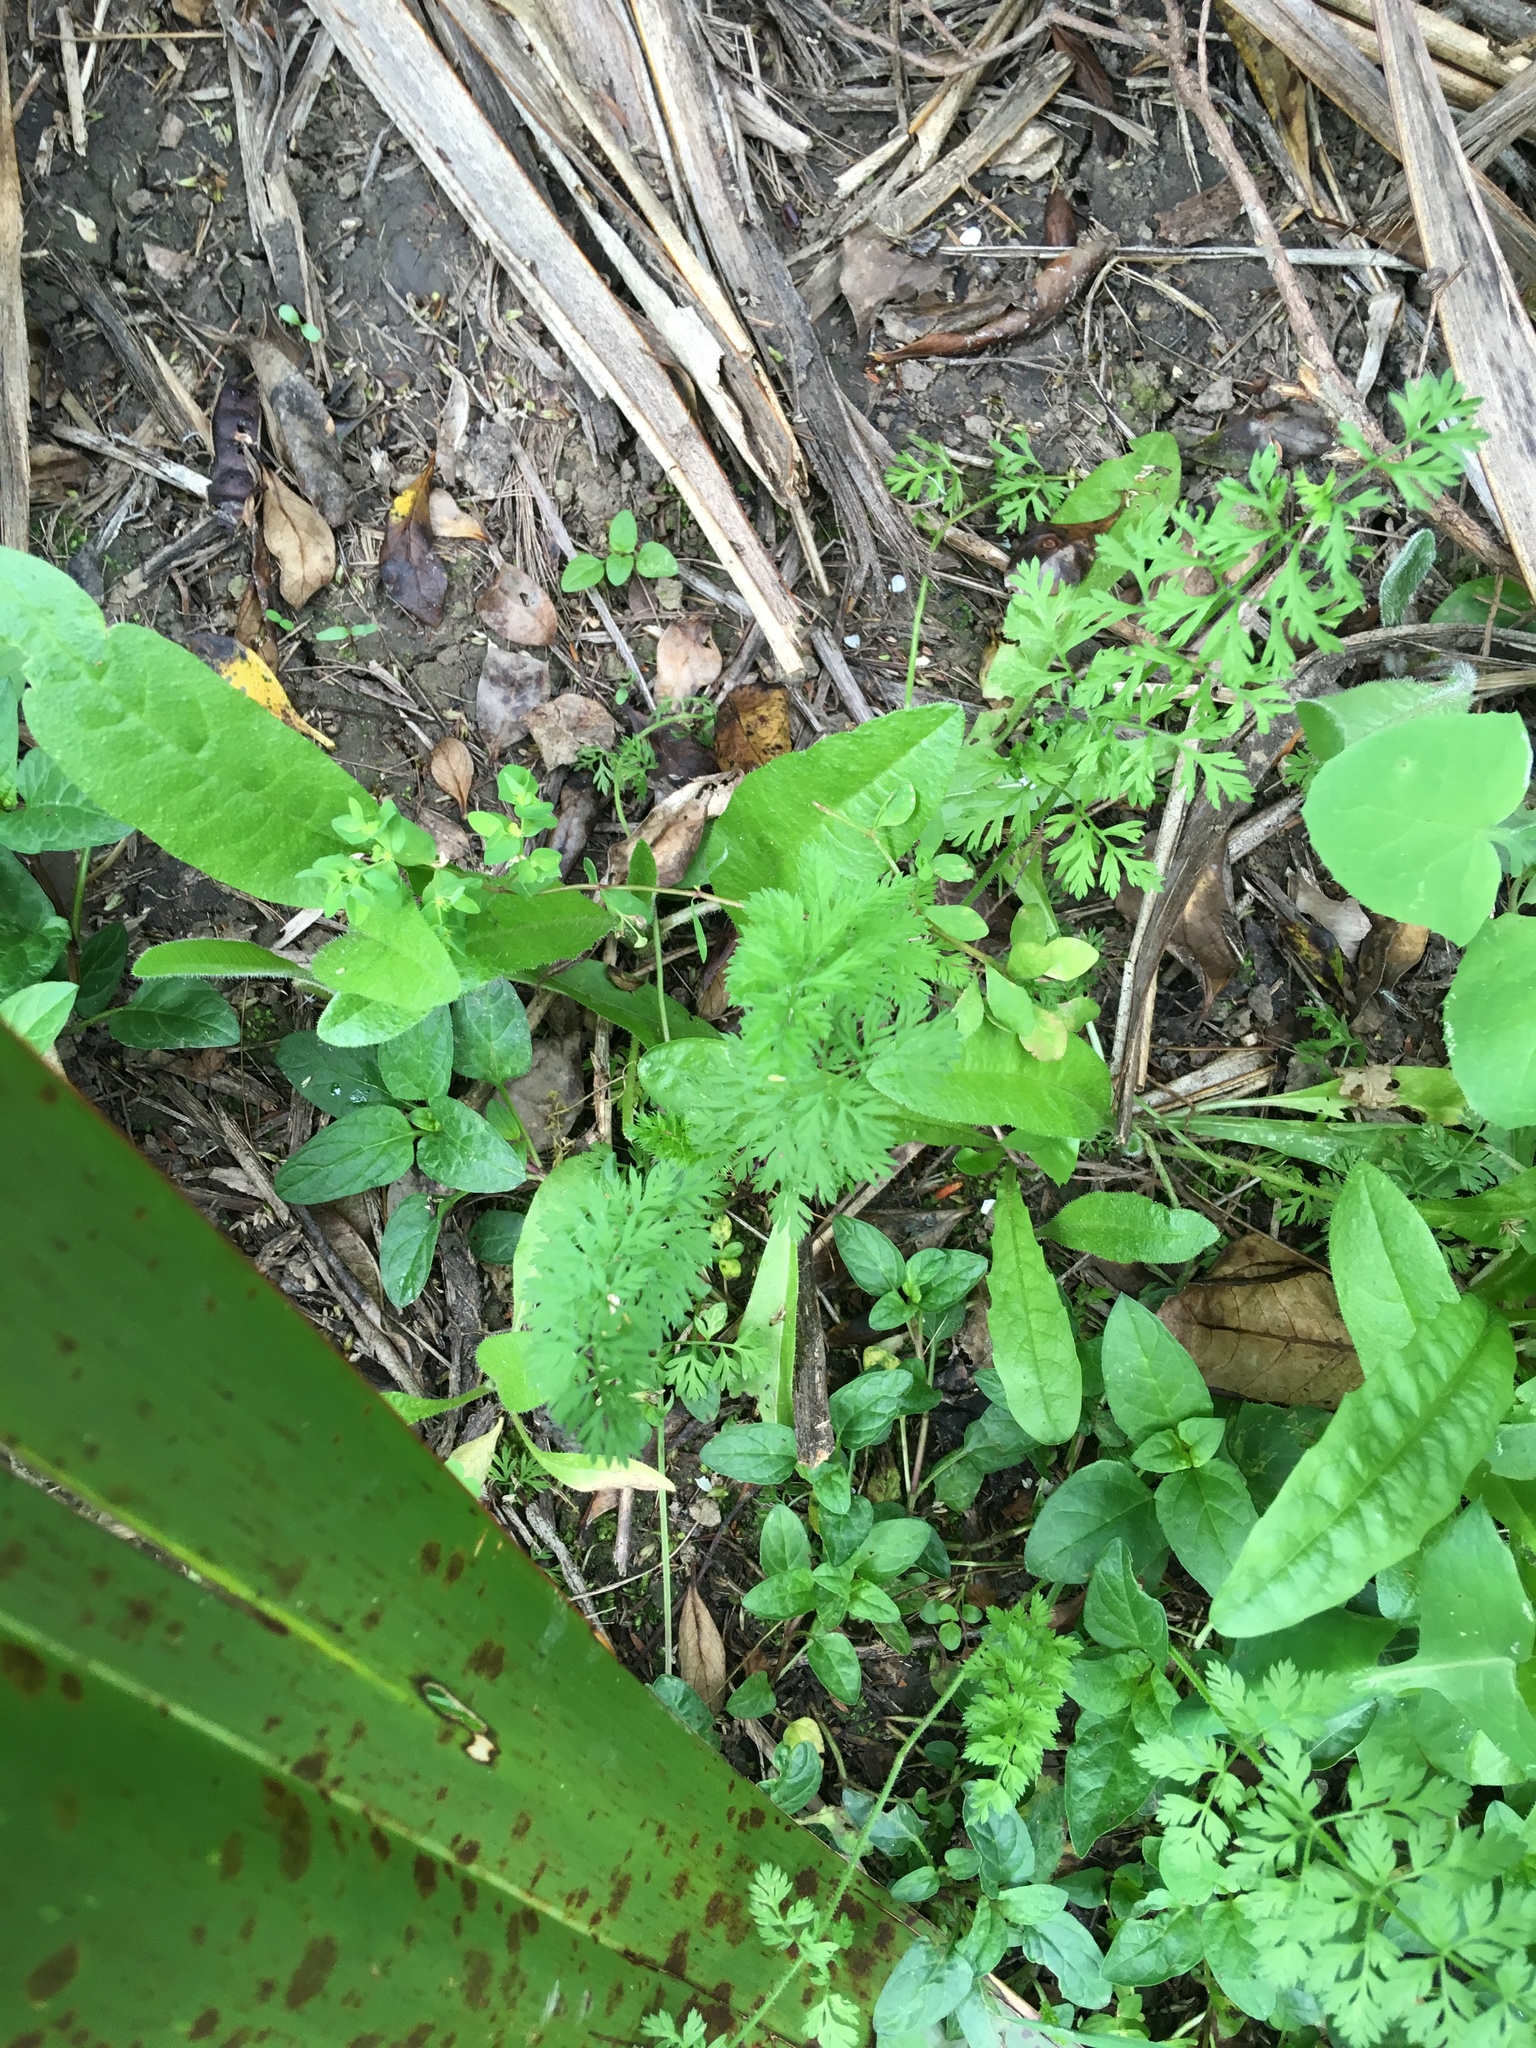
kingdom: Plantae
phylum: Tracheophyta
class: Magnoliopsida
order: Apiales
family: Apiaceae
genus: Daucus
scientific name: Daucus carota
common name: Wild carrot
